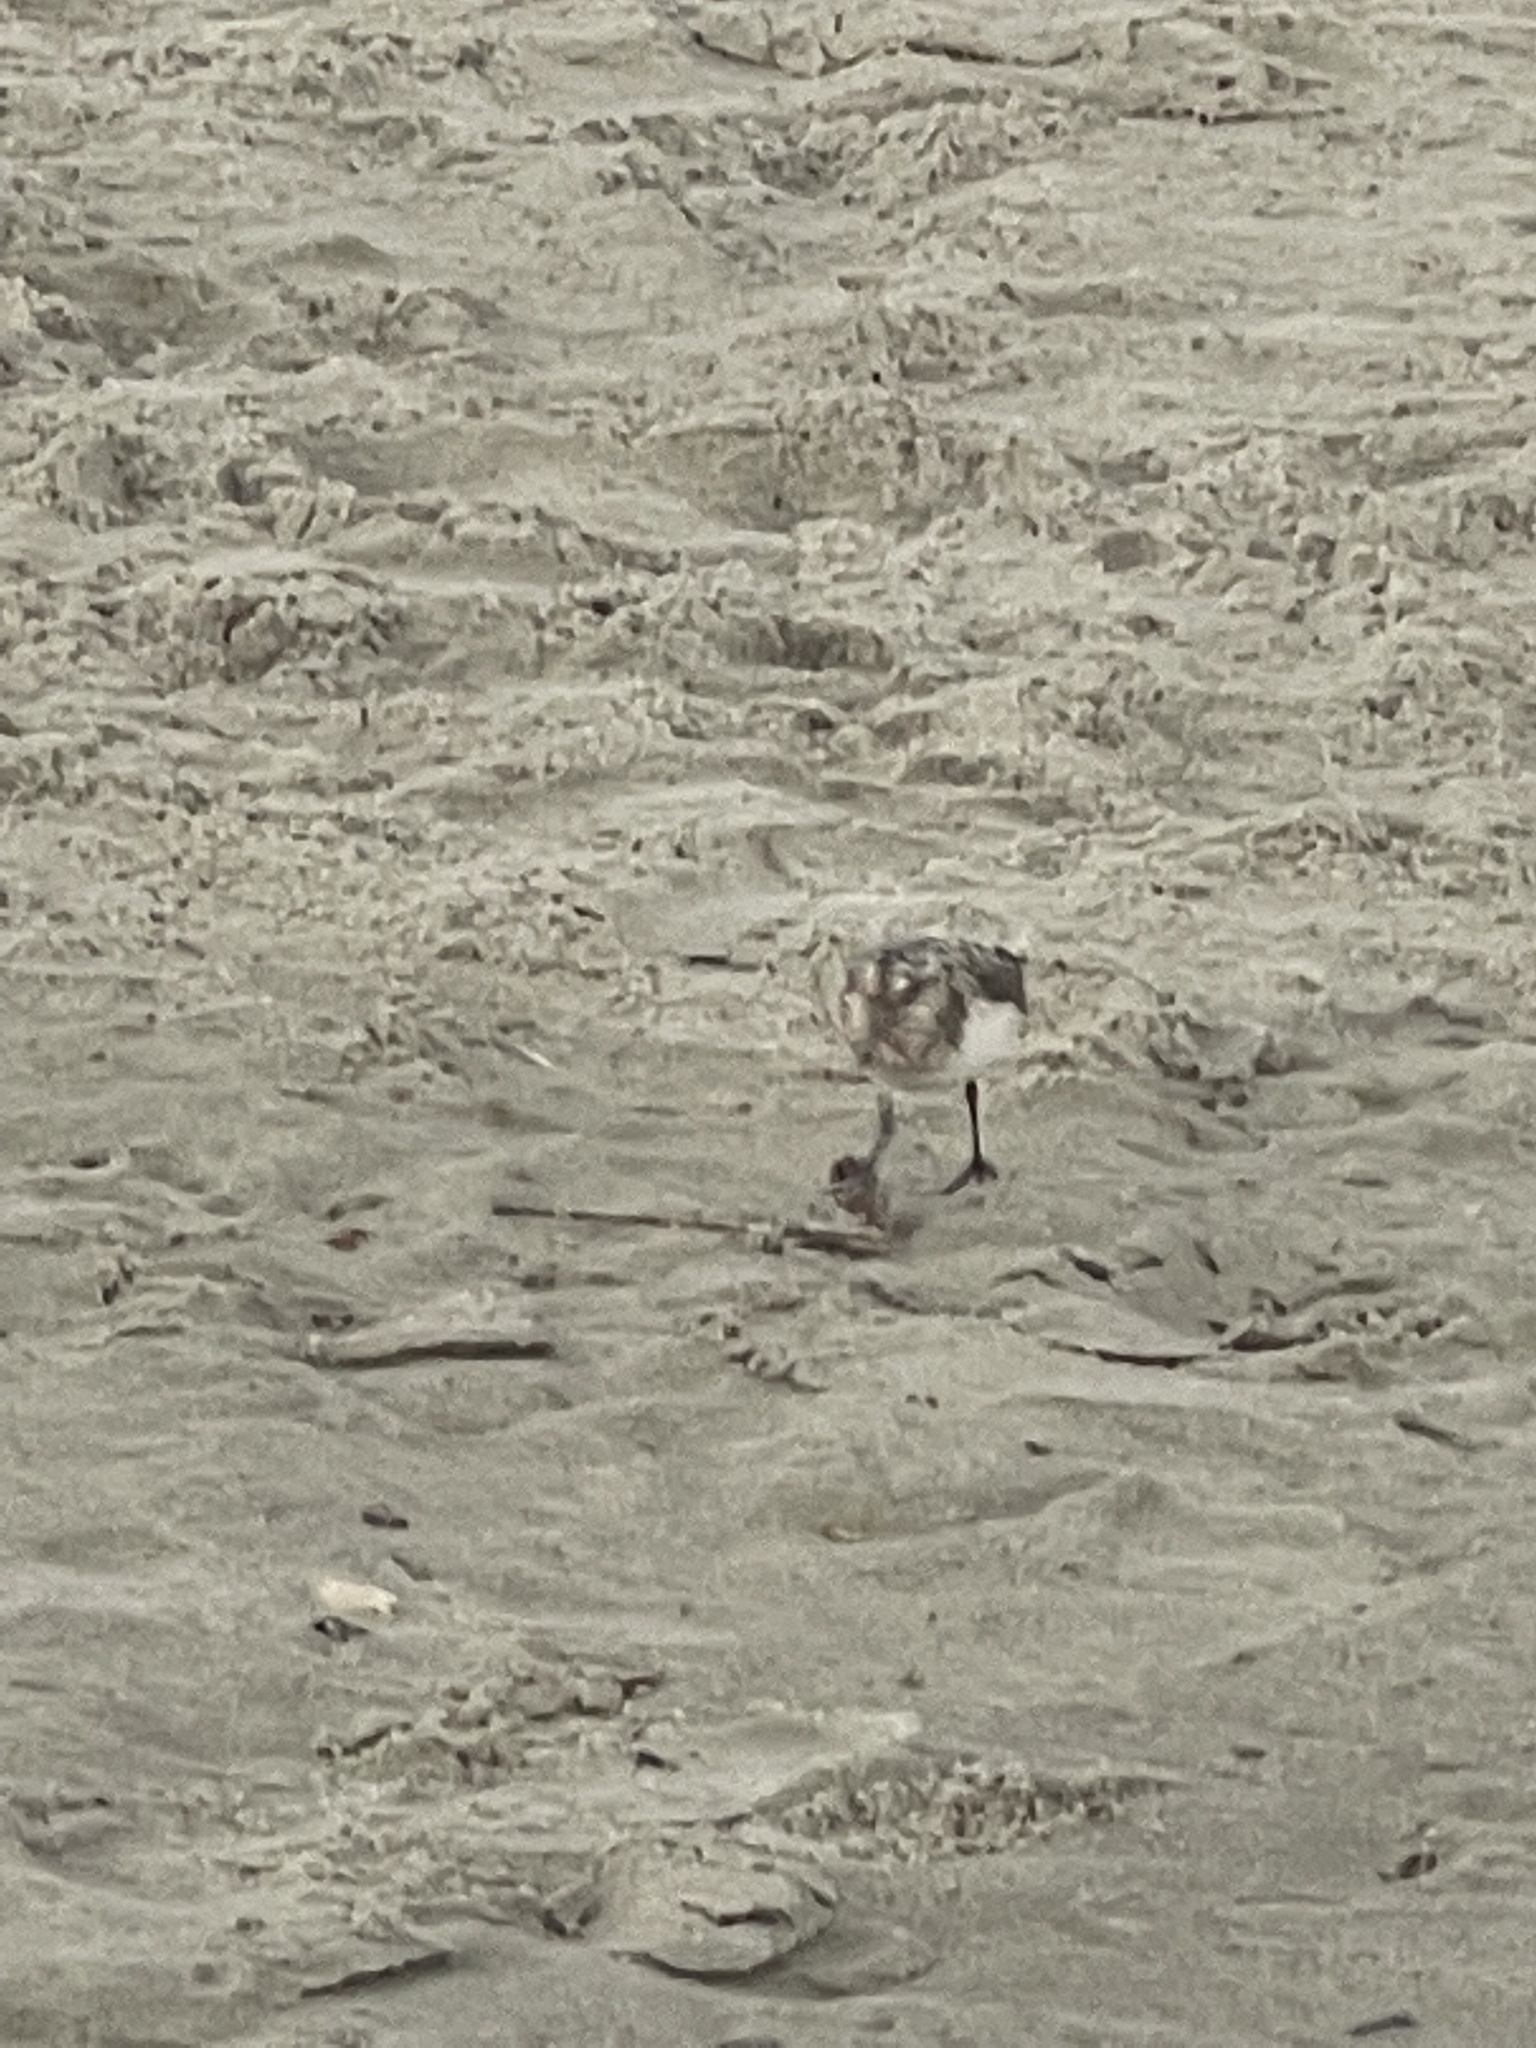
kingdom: Animalia
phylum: Chordata
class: Aves
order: Charadriiformes
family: Scolopacidae
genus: Calidris
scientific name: Calidris alba
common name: Sanderling
